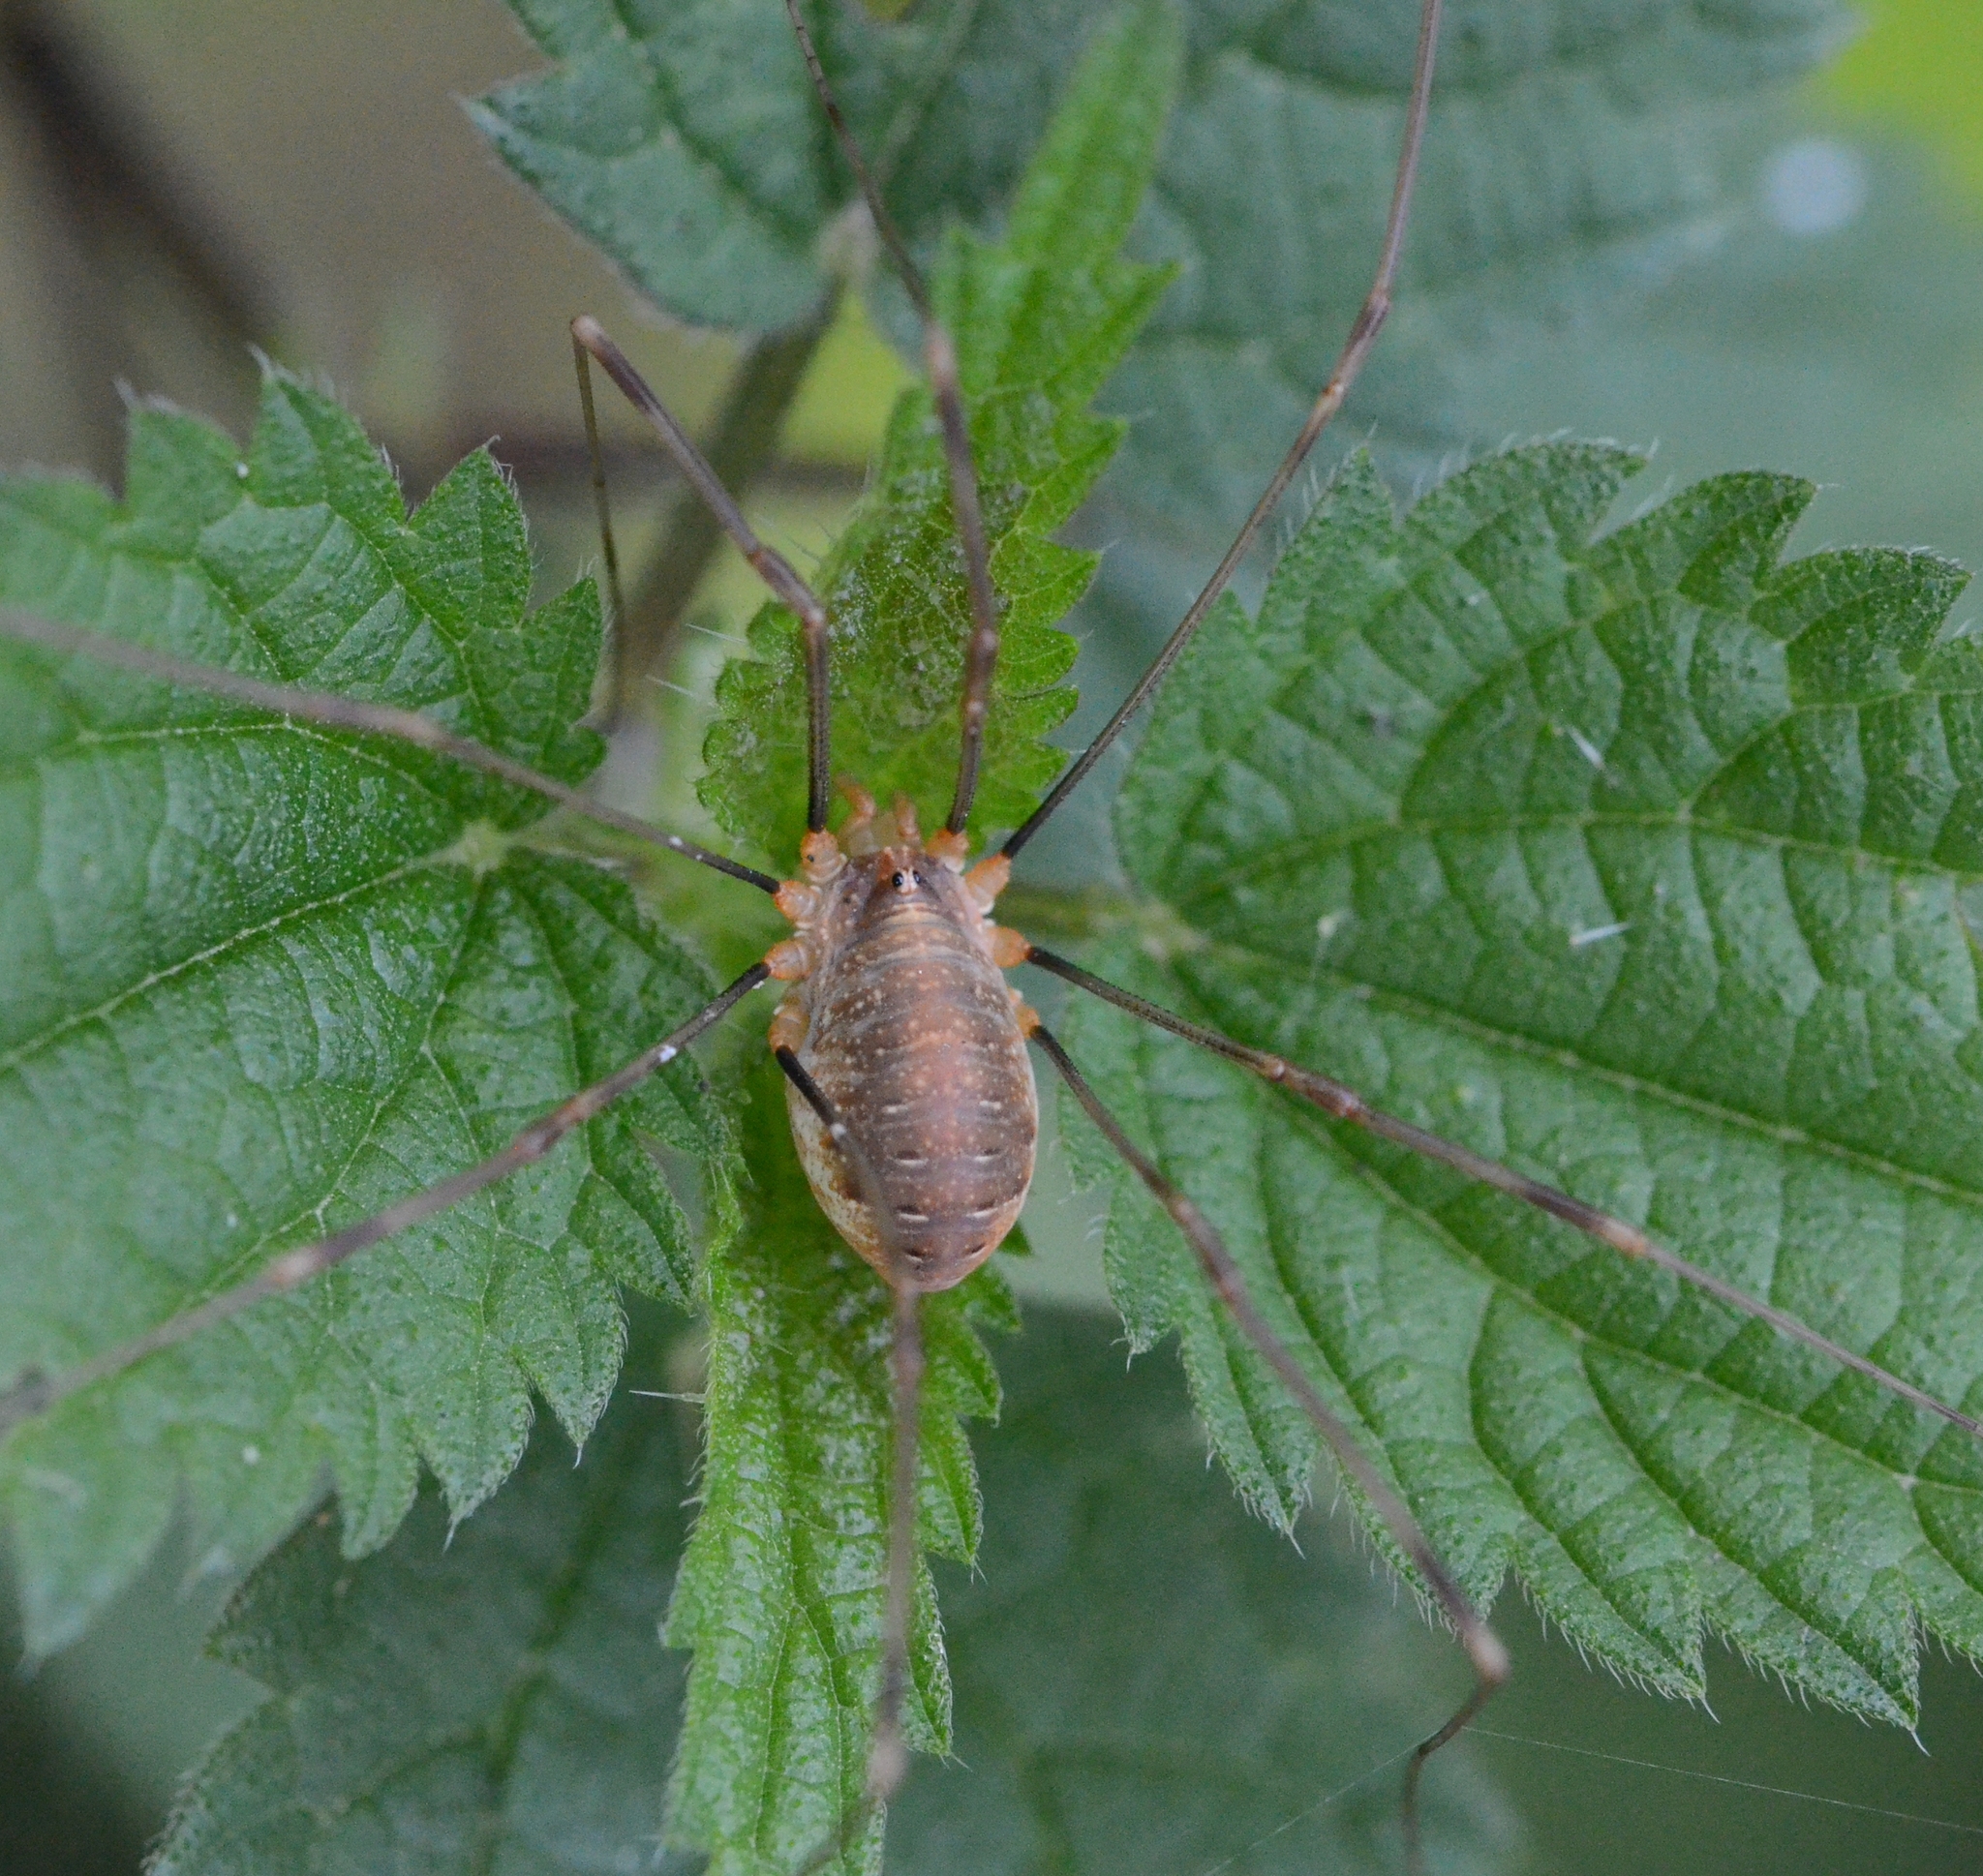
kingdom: Animalia
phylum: Arthropoda
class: Arachnida
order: Opiliones
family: Phalangiidae
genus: Opilio
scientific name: Opilio canestrinii
